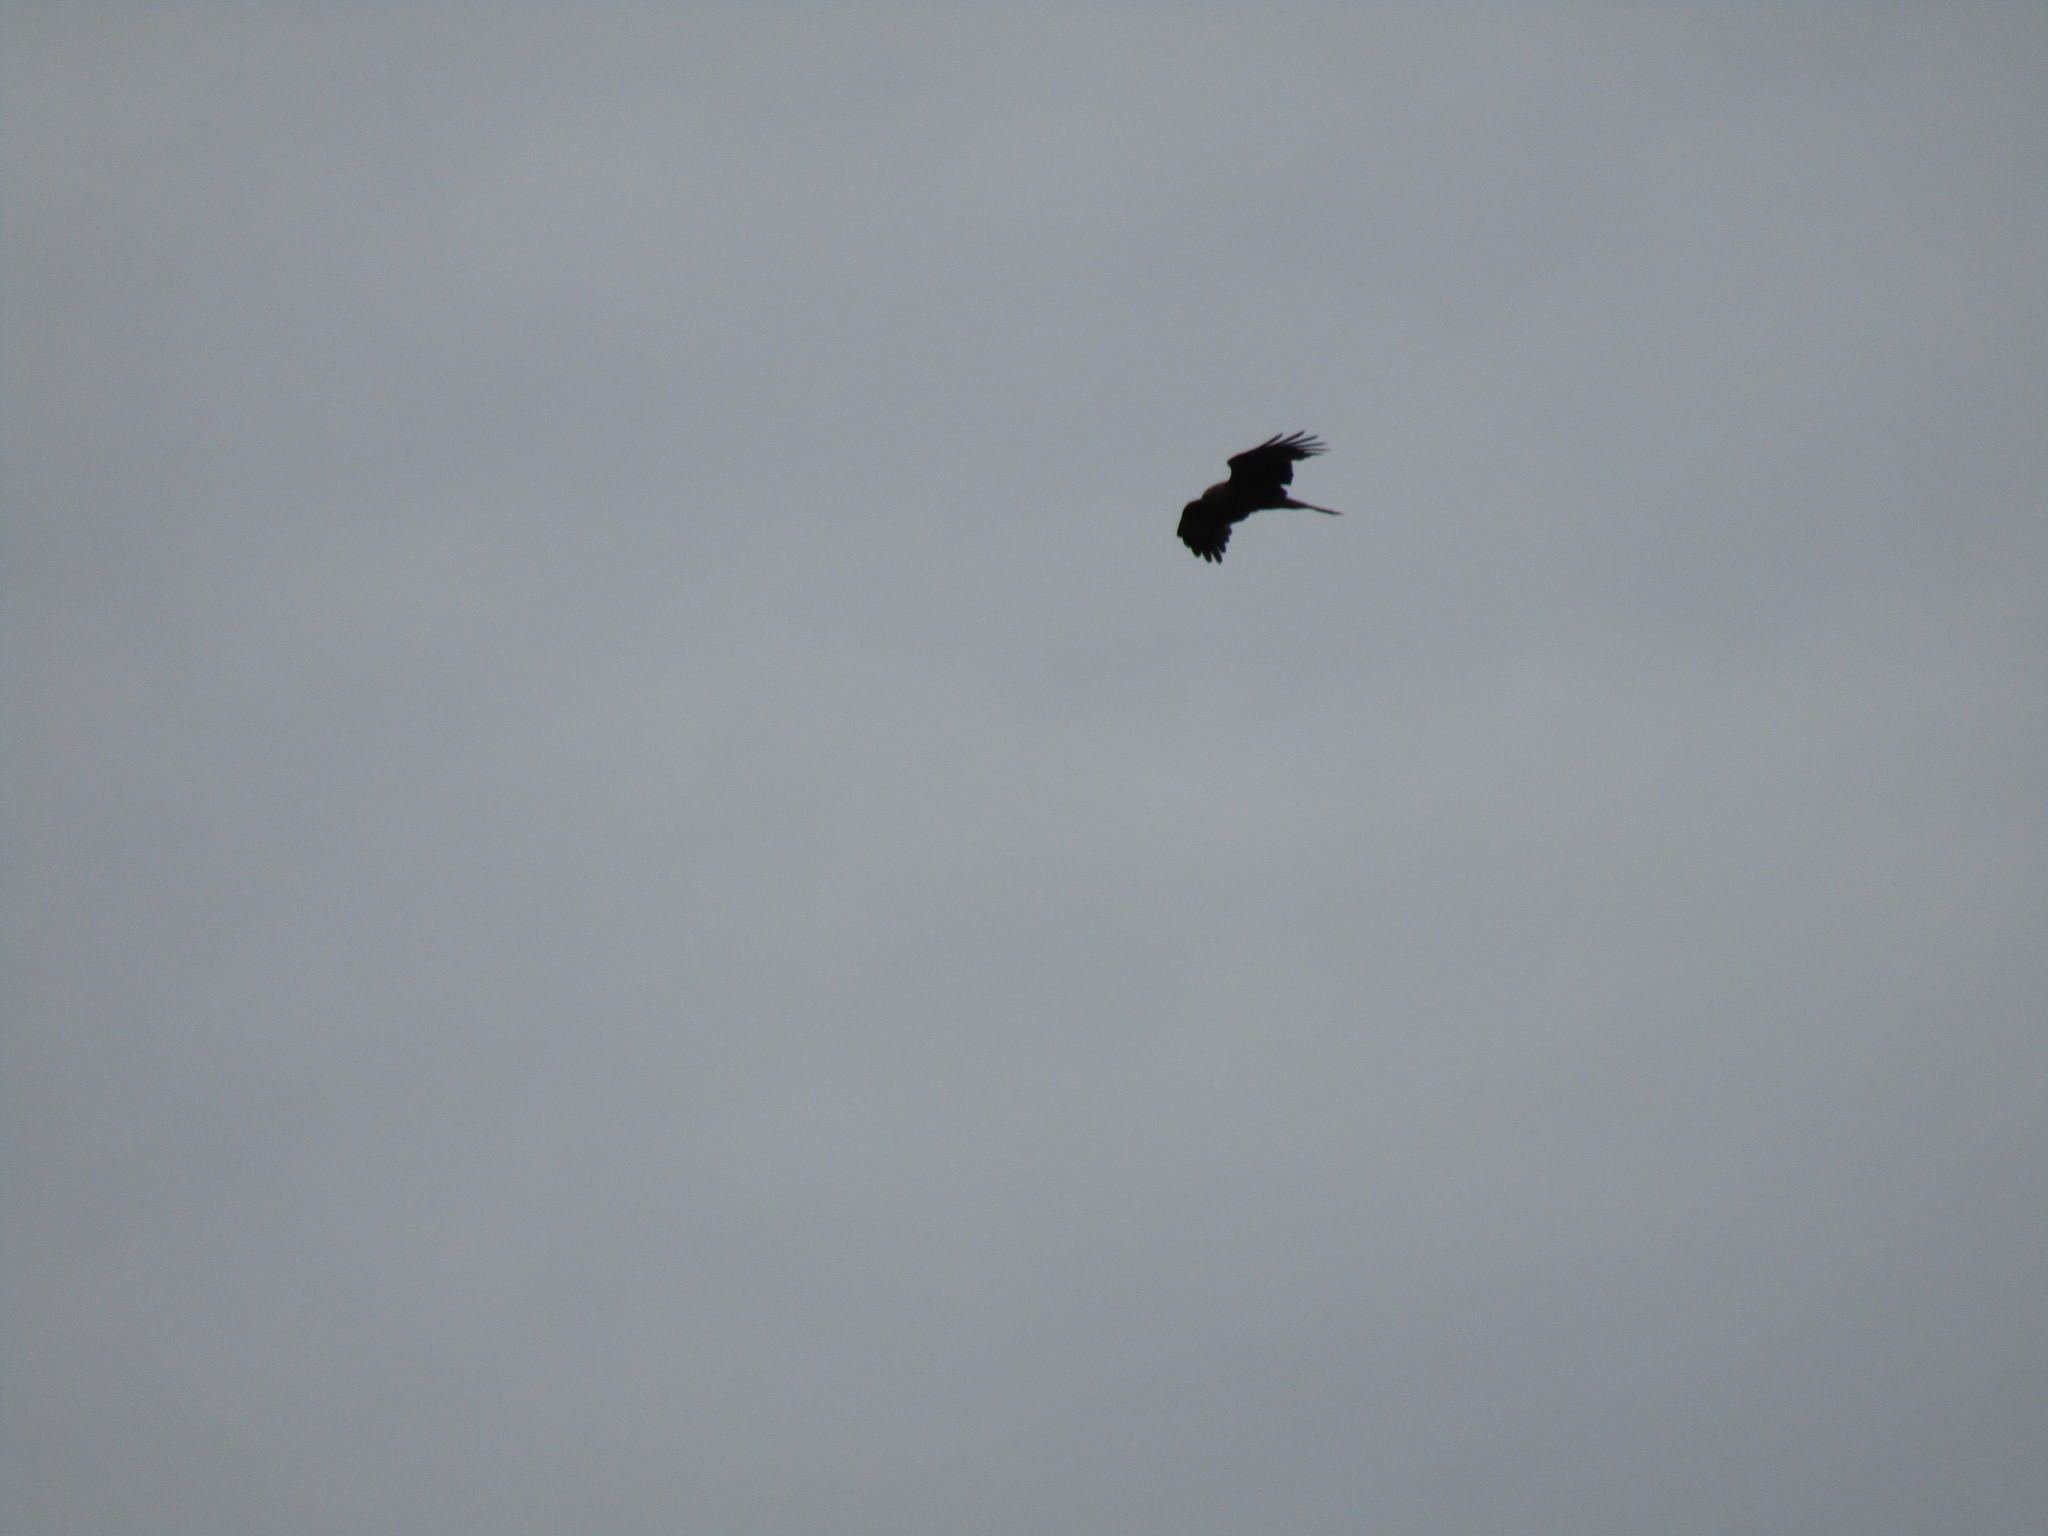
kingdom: Animalia
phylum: Chordata
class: Aves
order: Accipitriformes
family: Accipitridae
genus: Milvus
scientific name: Milvus migrans
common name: Black kite
